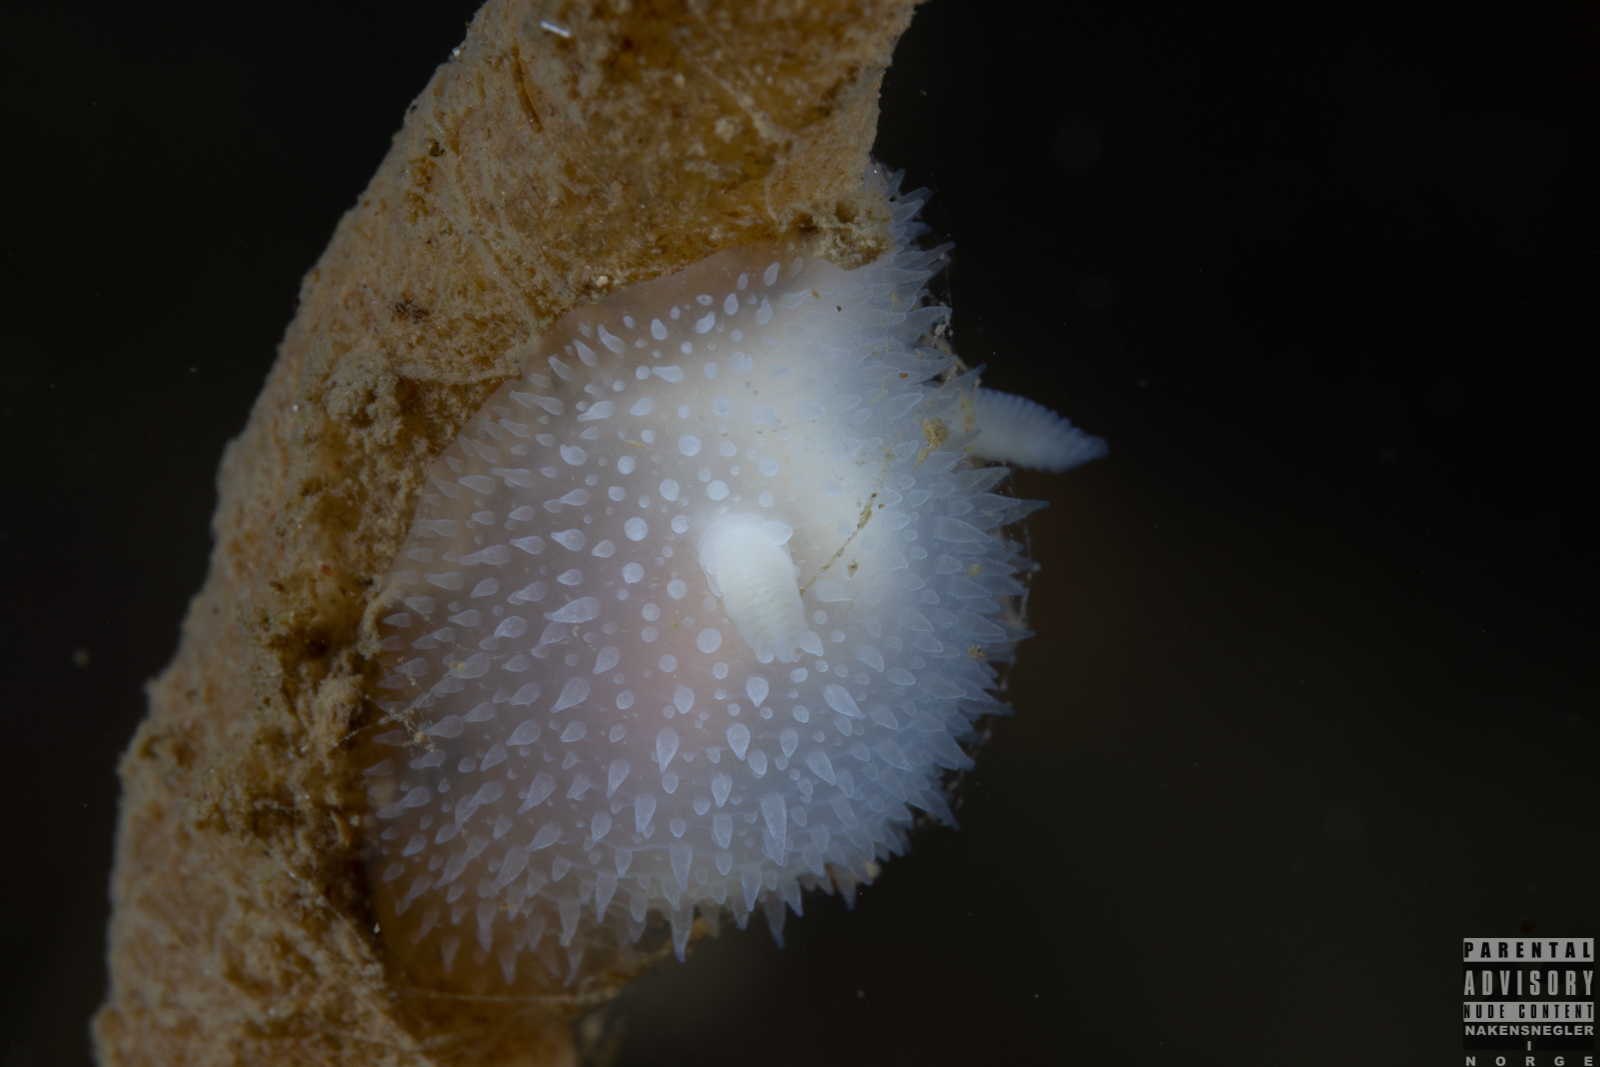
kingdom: Animalia
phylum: Mollusca
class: Gastropoda
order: Nudibranchia
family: Onchidorididae
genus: Acanthodoris
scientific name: Acanthodoris pilosa
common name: Hairy spiny doris
